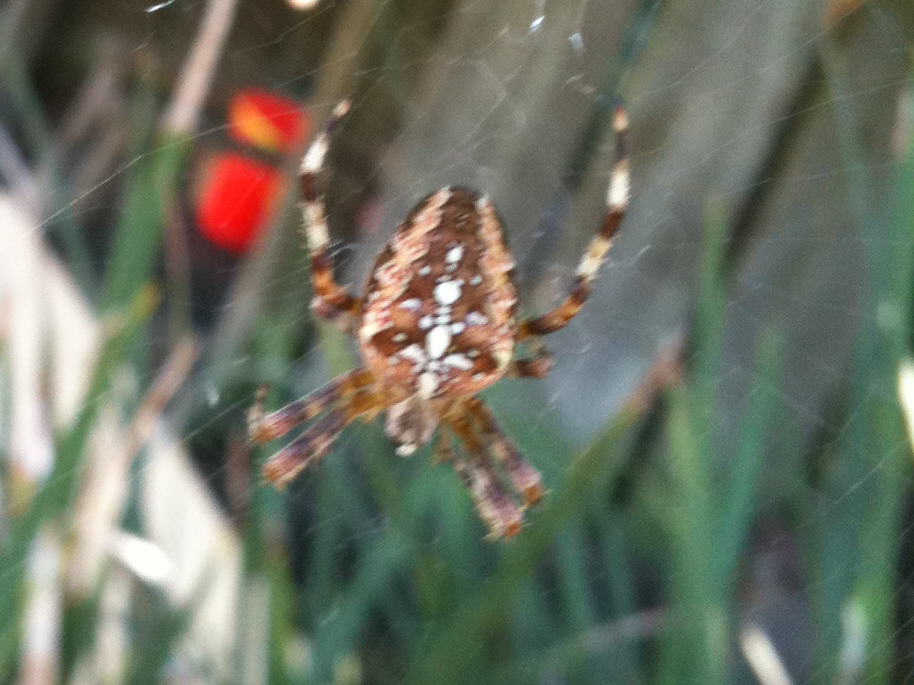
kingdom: Animalia
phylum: Arthropoda
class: Arachnida
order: Araneae
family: Araneidae
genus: Araneus
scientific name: Araneus diadematus
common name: Cross orbweaver
